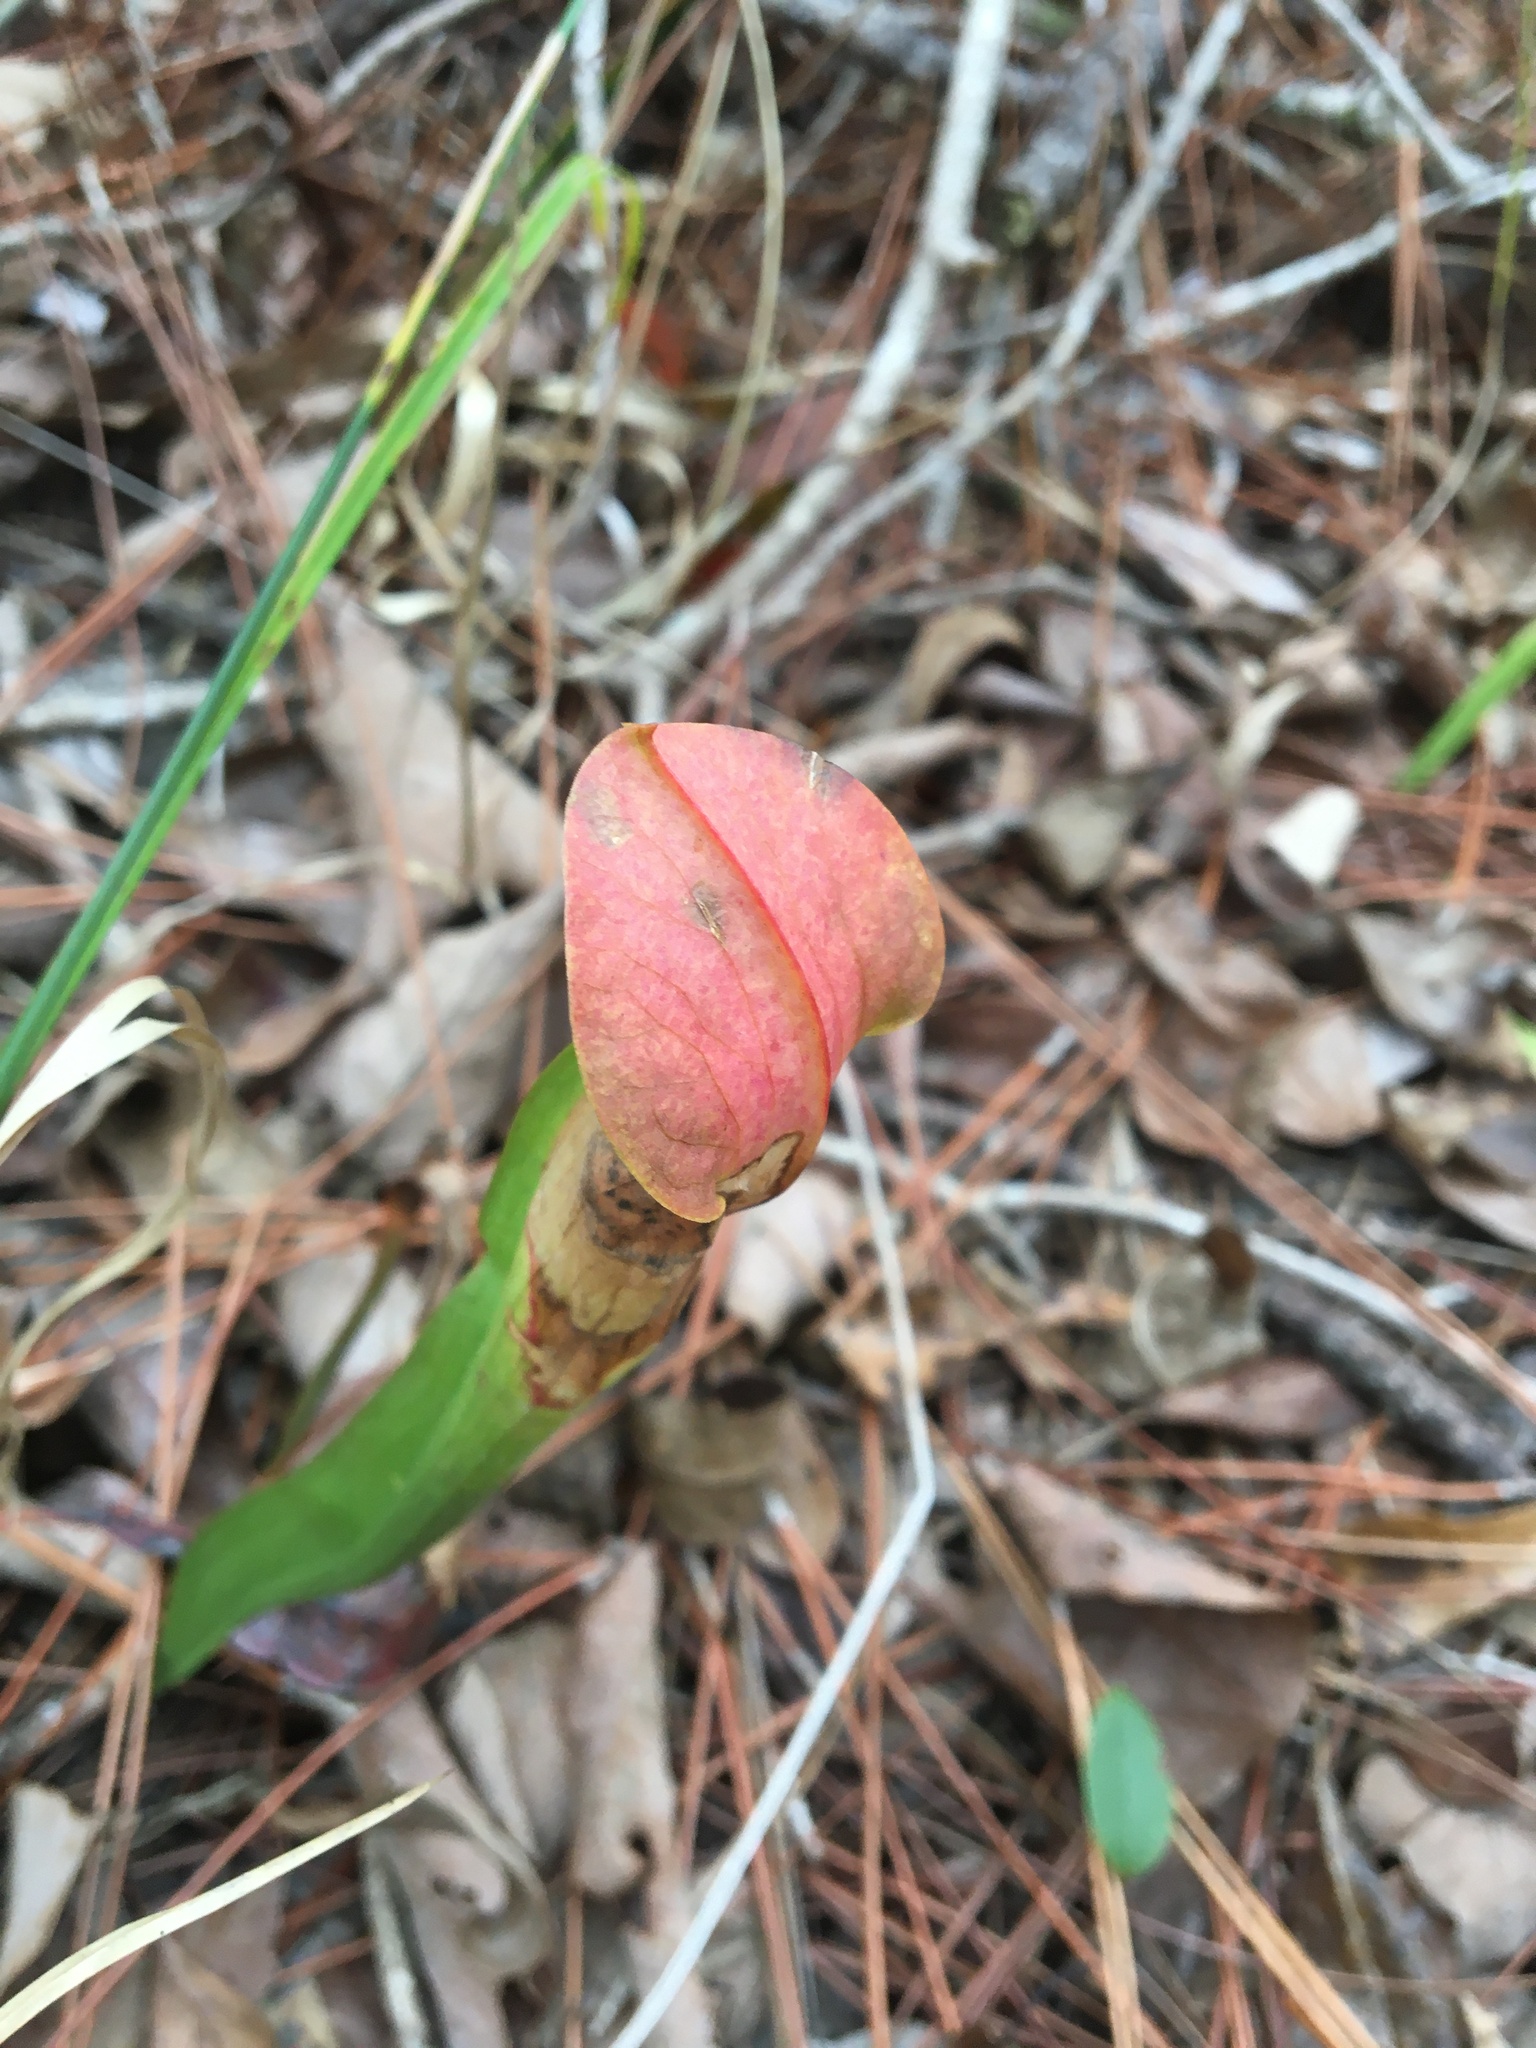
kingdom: Plantae
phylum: Tracheophyta
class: Magnoliopsida
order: Ericales
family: Sarraceniaceae
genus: Sarracenia
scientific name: Sarracenia alata
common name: Yellow trumpets
